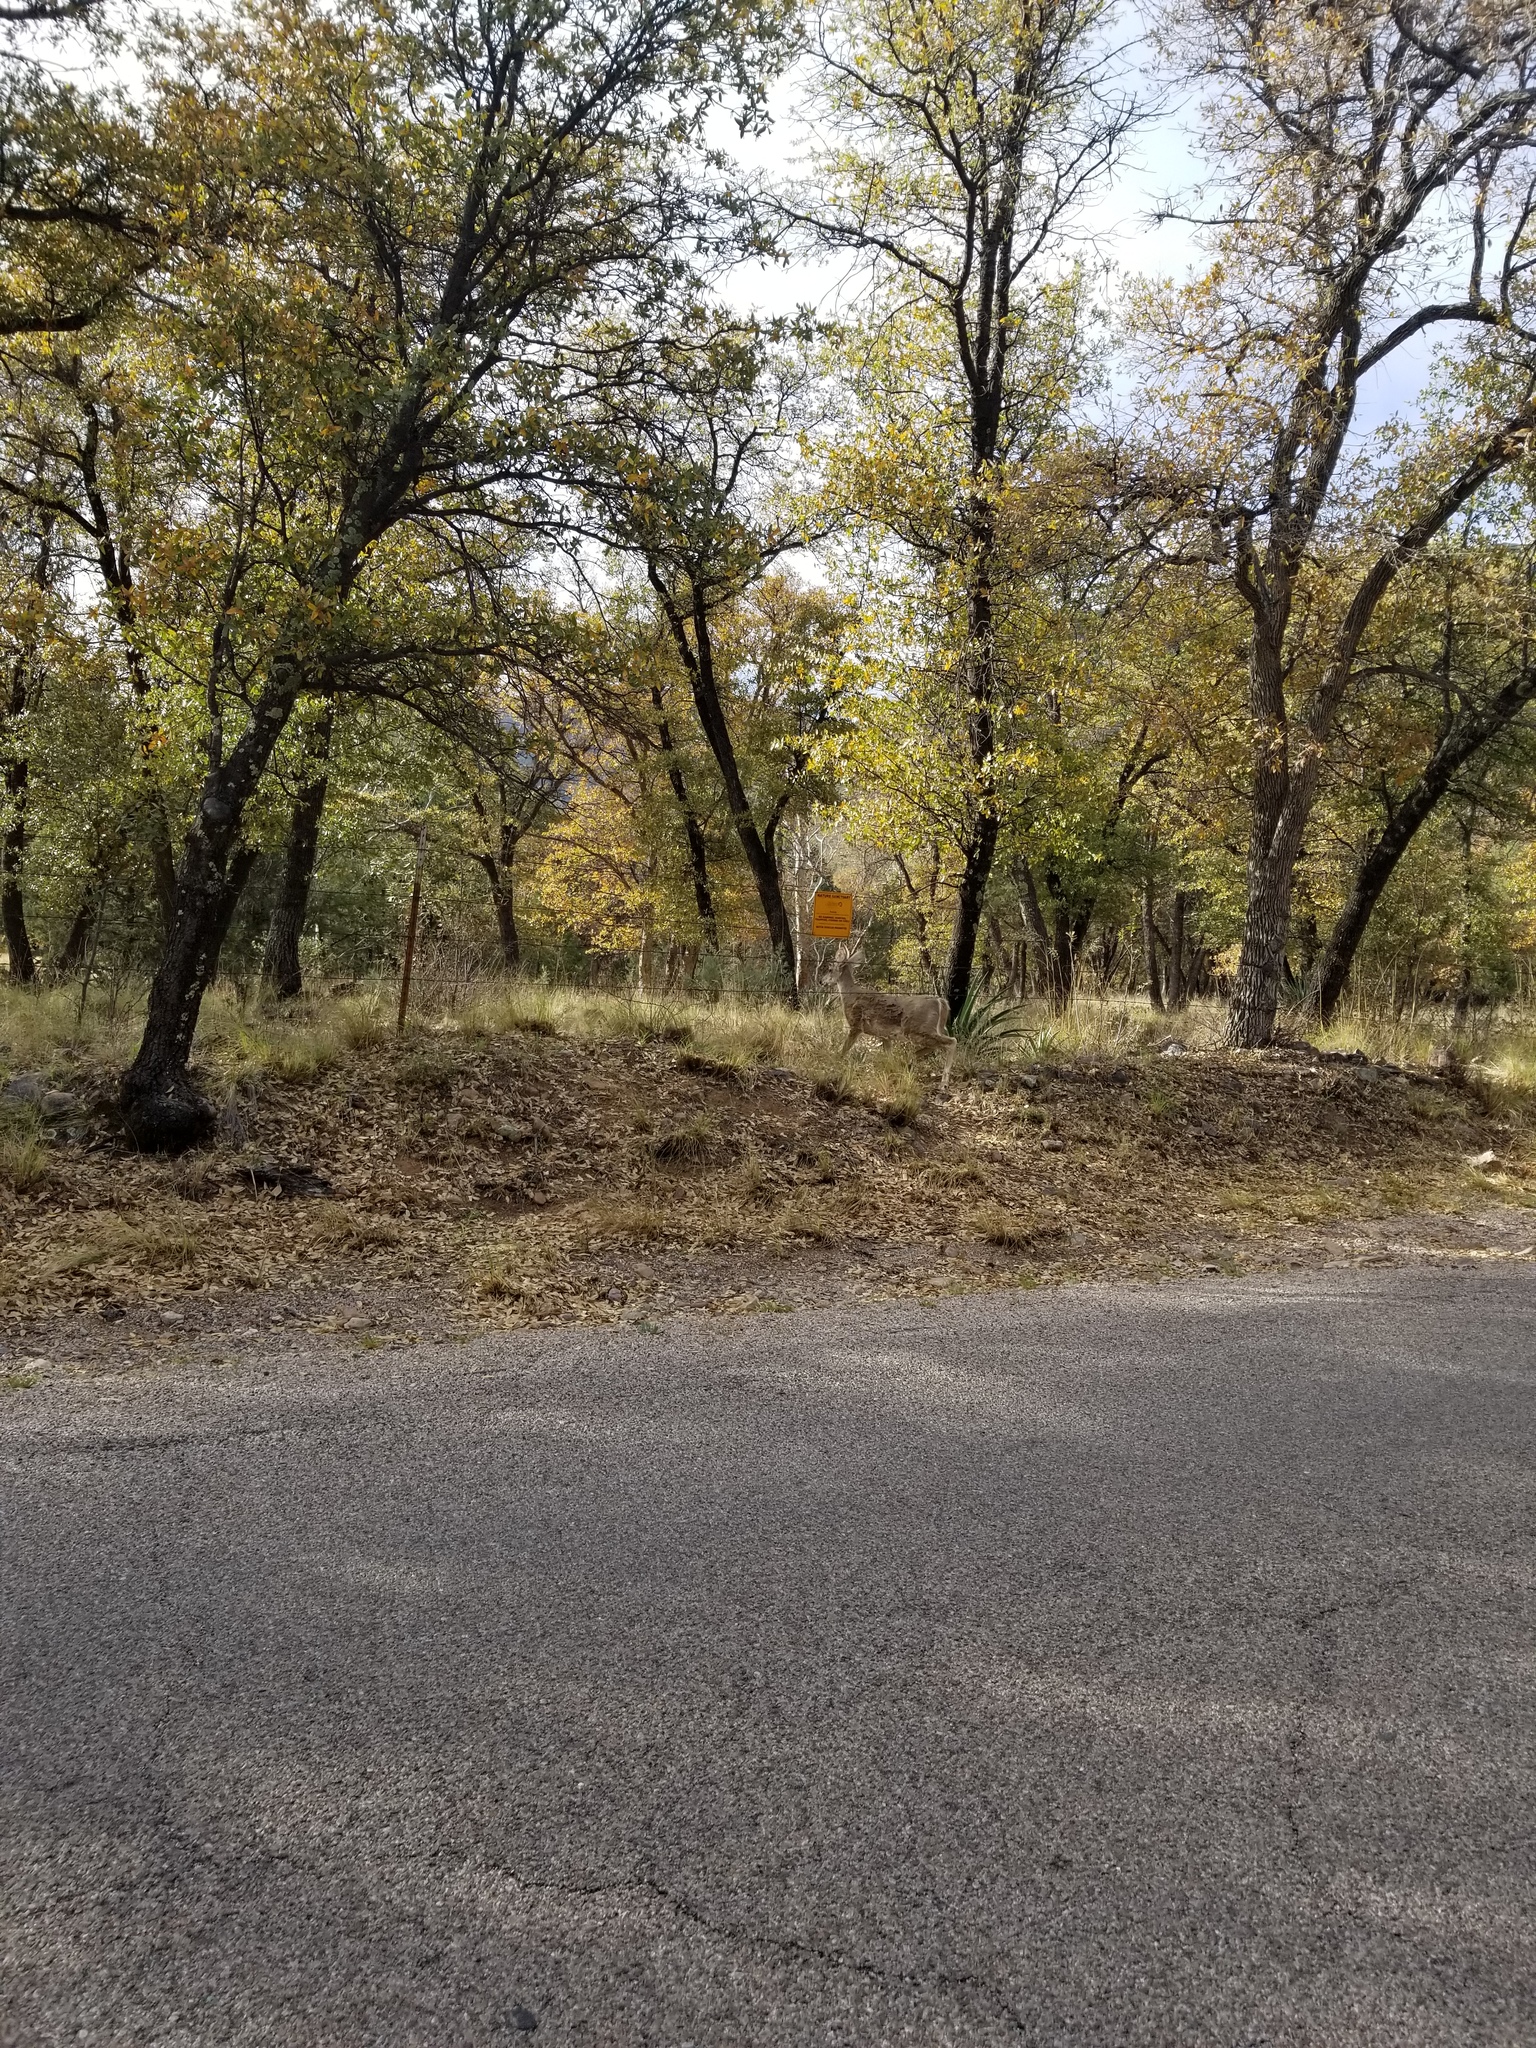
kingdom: Animalia
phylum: Chordata
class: Mammalia
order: Artiodactyla
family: Cervidae
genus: Odocoileus
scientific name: Odocoileus virginianus
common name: White-tailed deer
